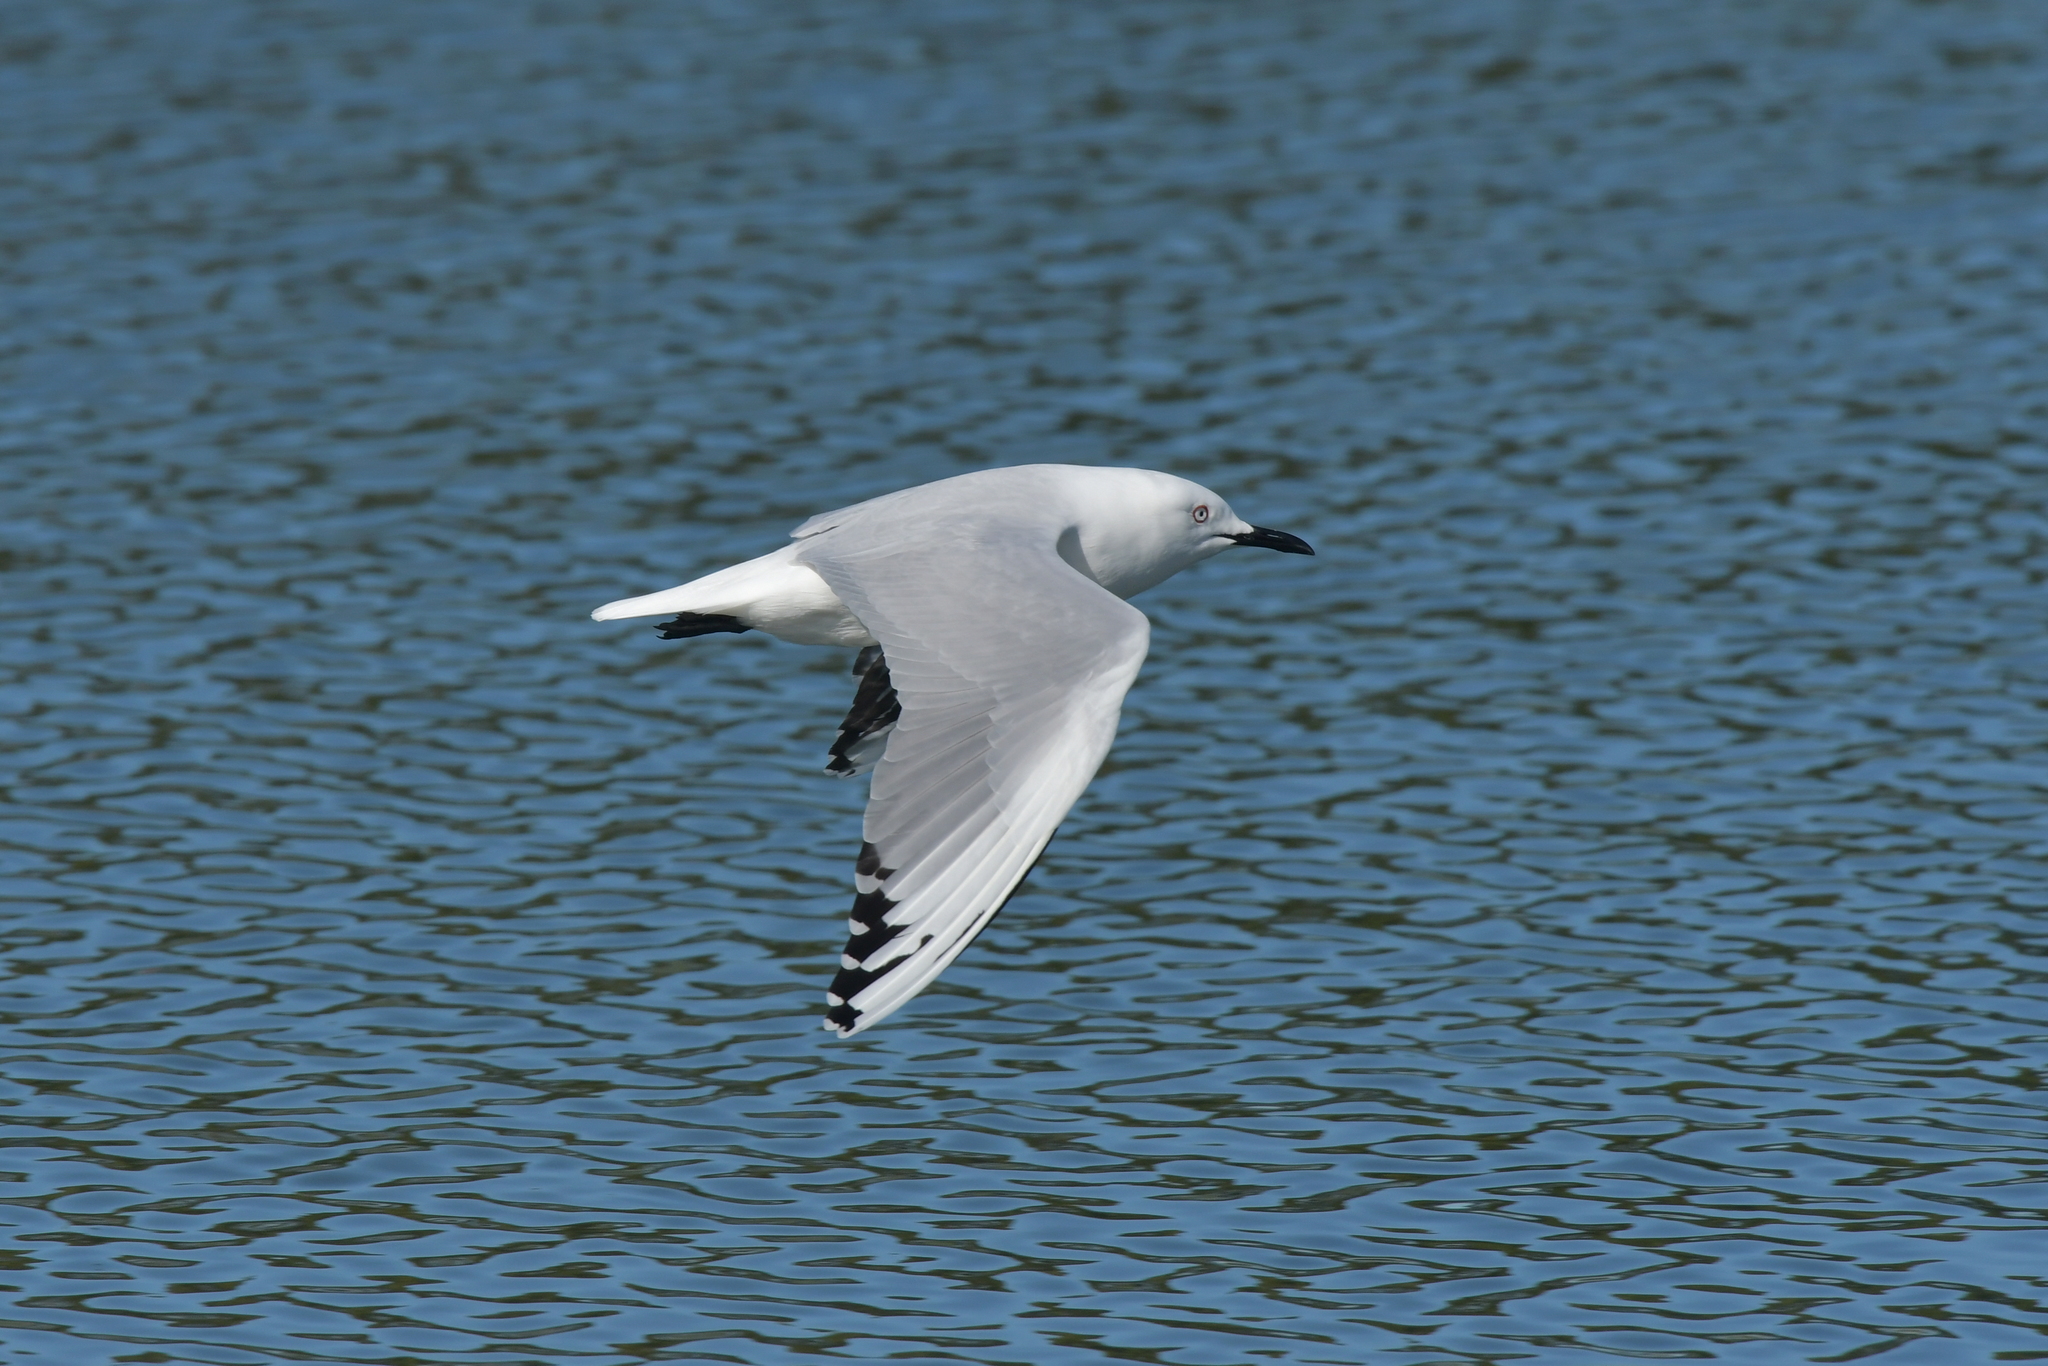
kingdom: Animalia
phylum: Chordata
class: Aves
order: Charadriiformes
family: Laridae
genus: Chroicocephalus
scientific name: Chroicocephalus bulleri
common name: Black-billed gull
